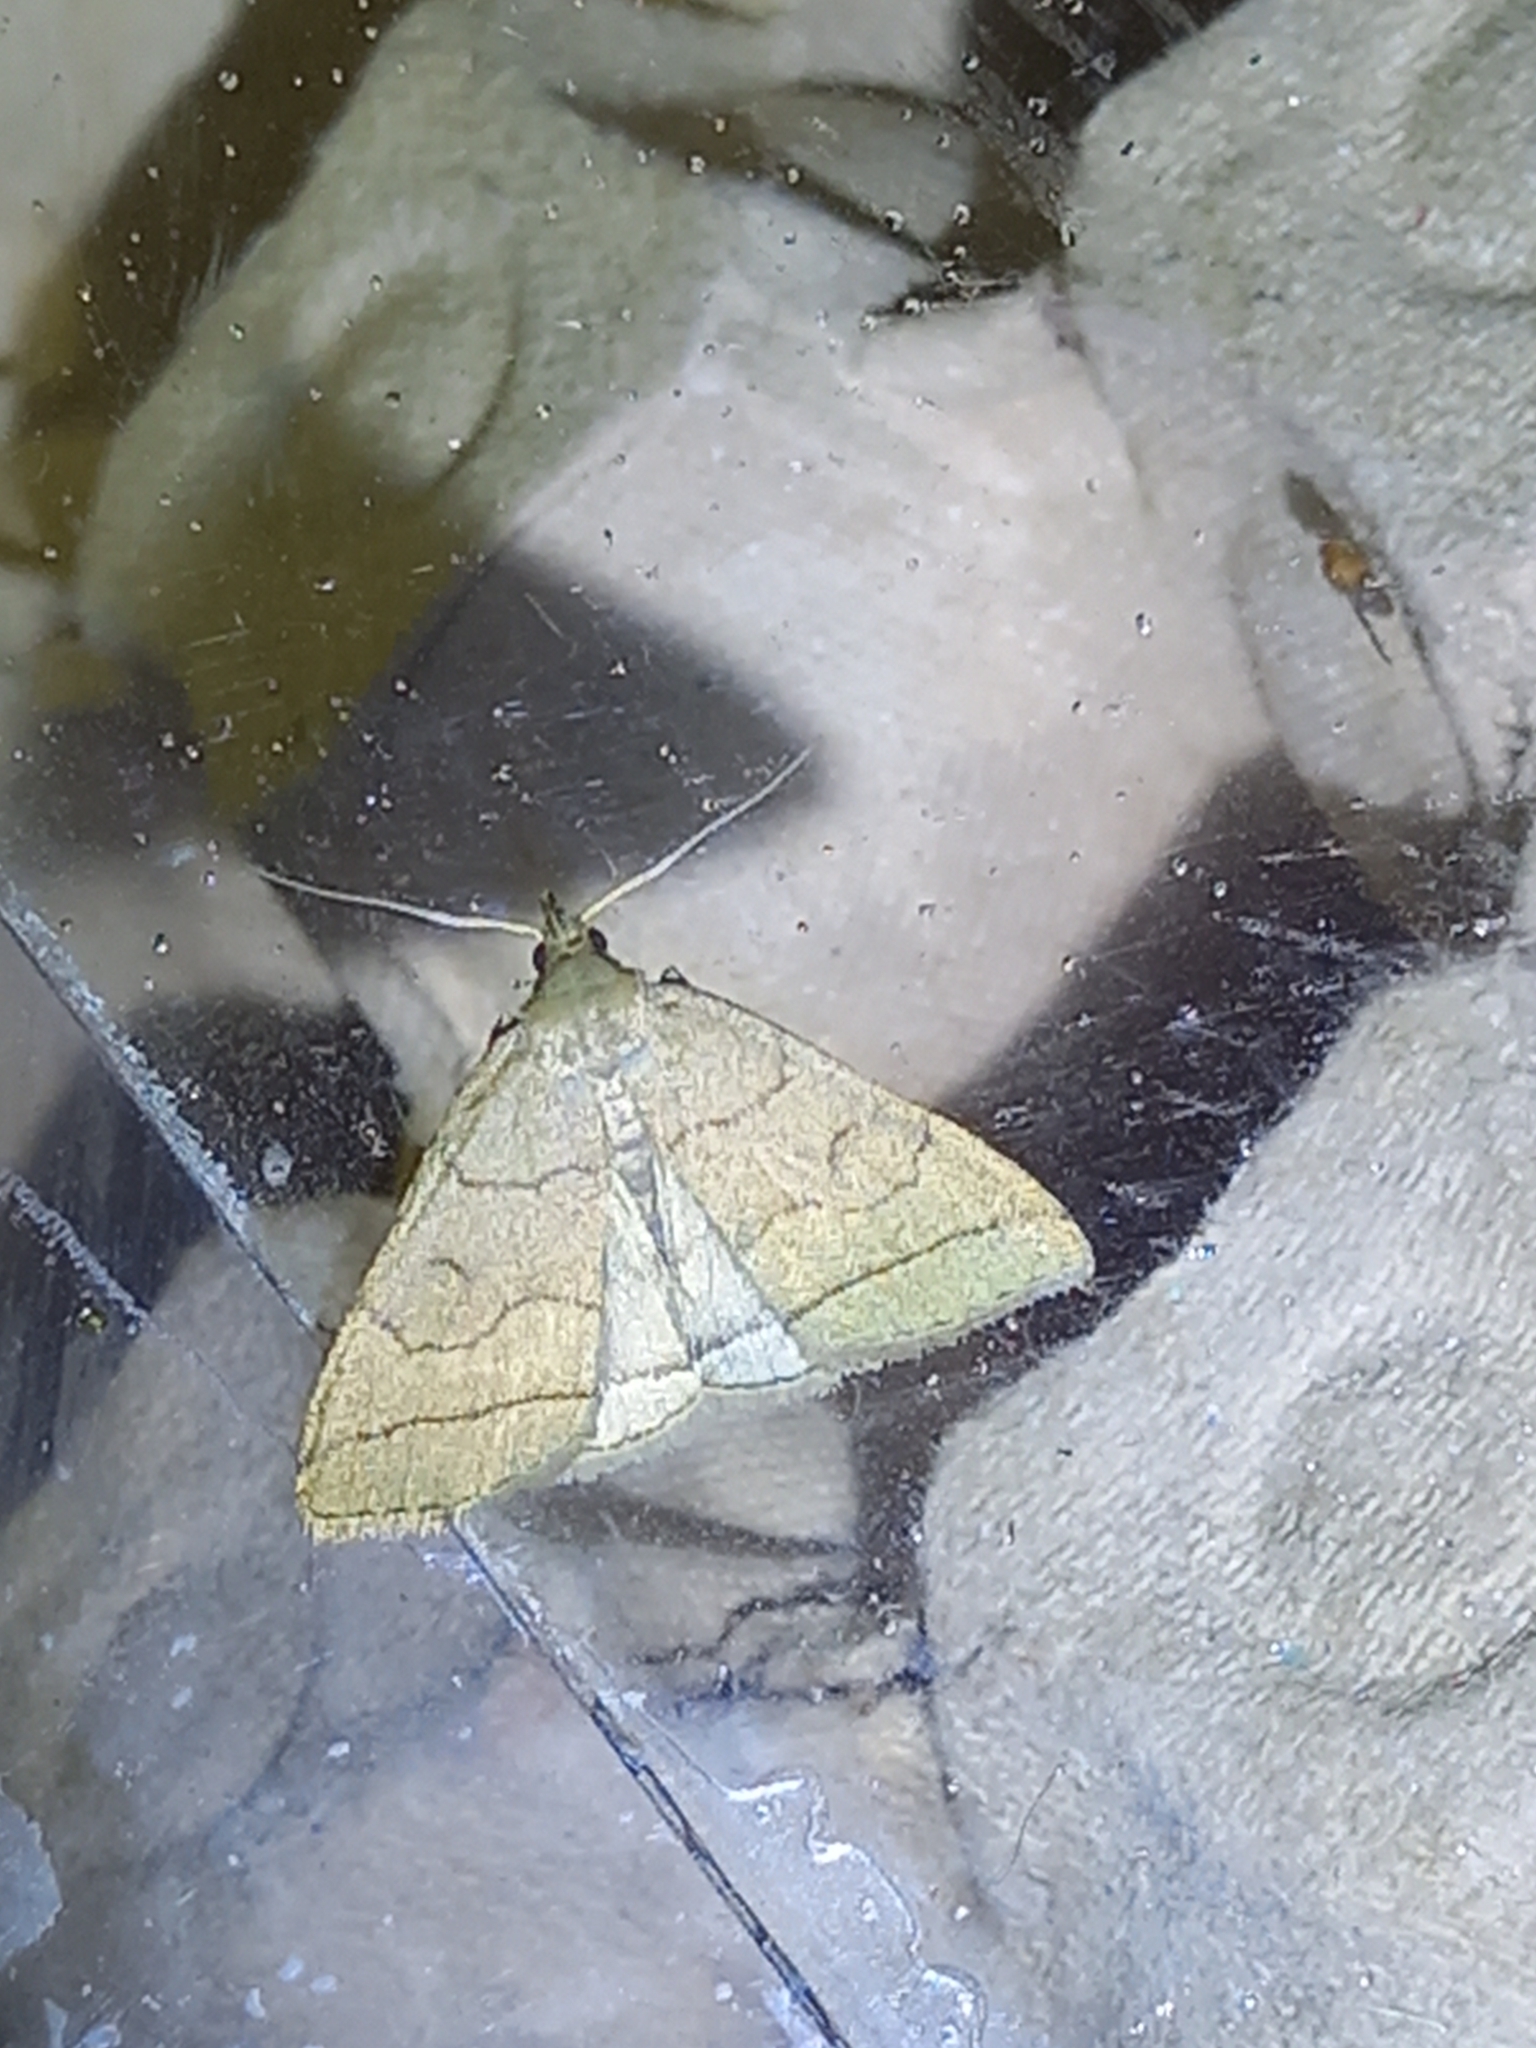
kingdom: Animalia
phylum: Arthropoda
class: Insecta
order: Lepidoptera
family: Erebidae
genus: Herminia
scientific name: Herminia tarsipennalis
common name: Fan-foot
